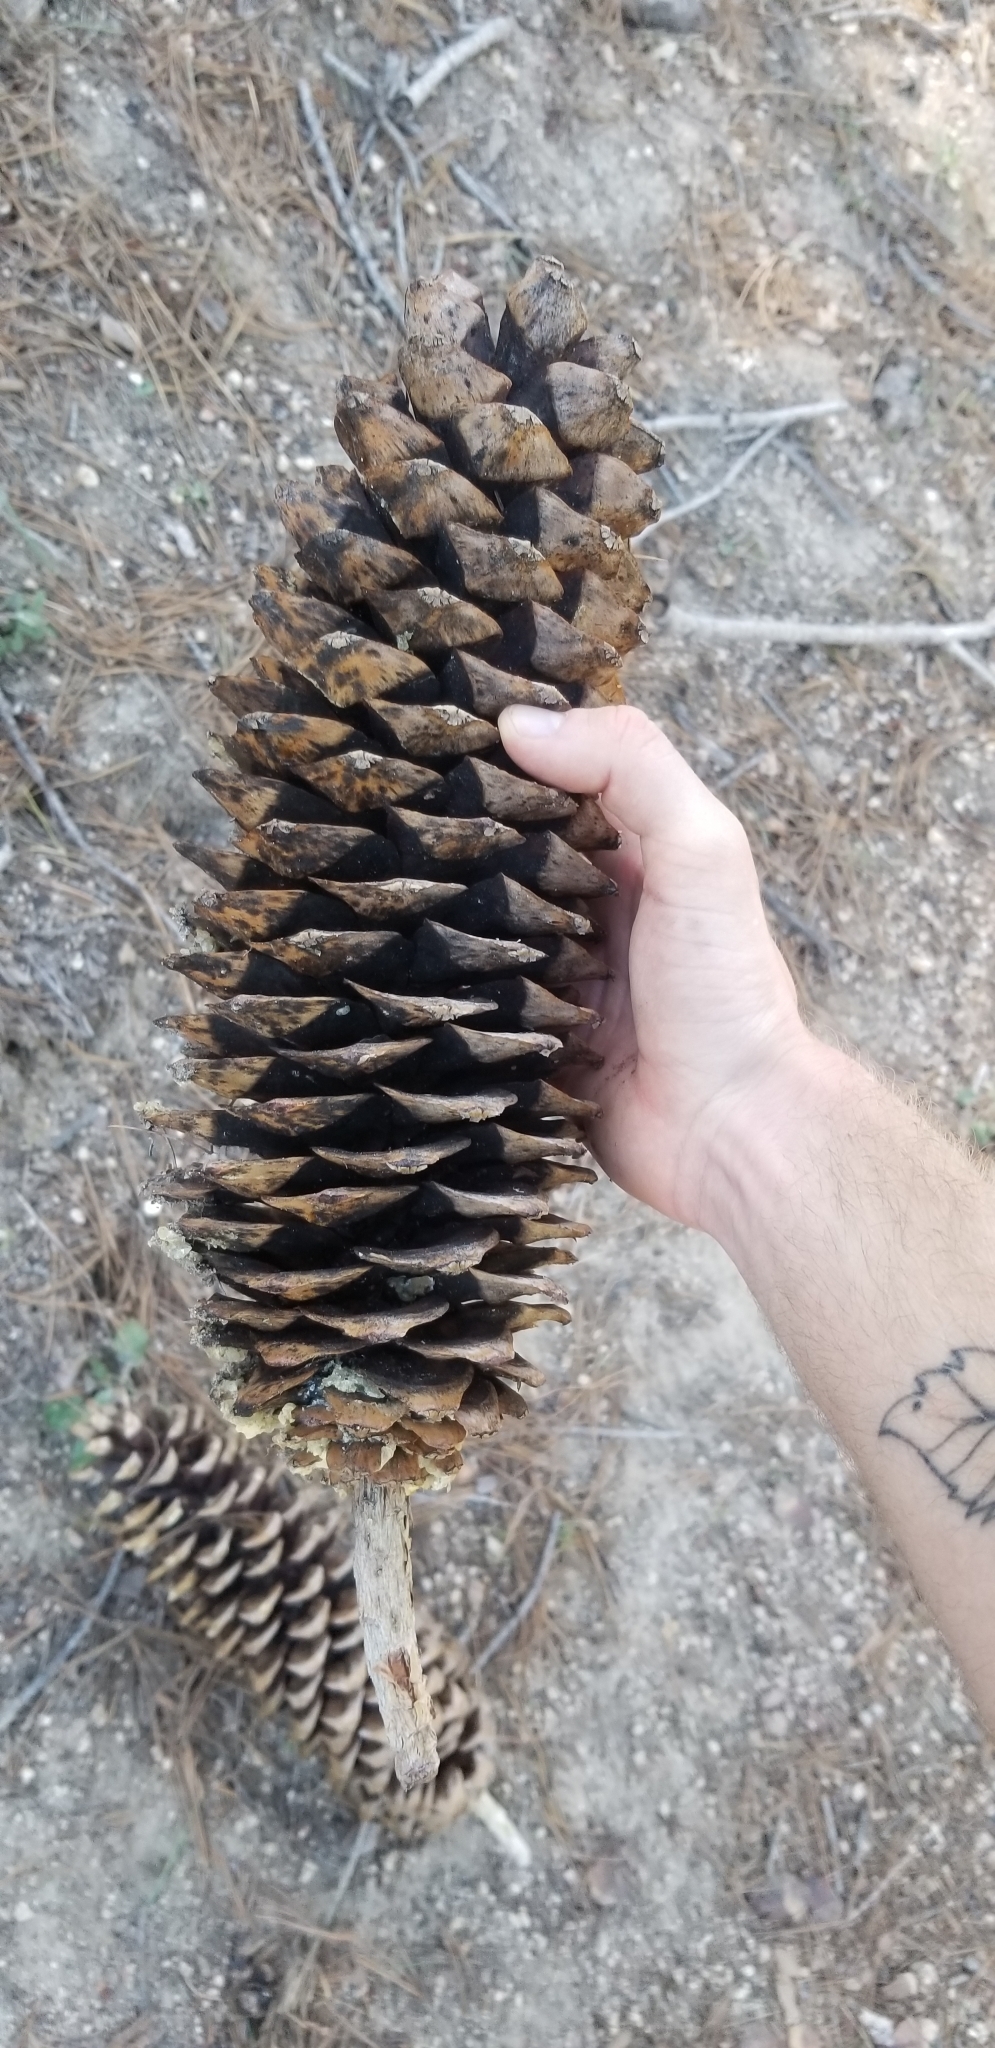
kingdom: Plantae
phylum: Tracheophyta
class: Pinopsida
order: Pinales
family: Pinaceae
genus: Pinus
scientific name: Pinus lambertiana
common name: Sugar pine
